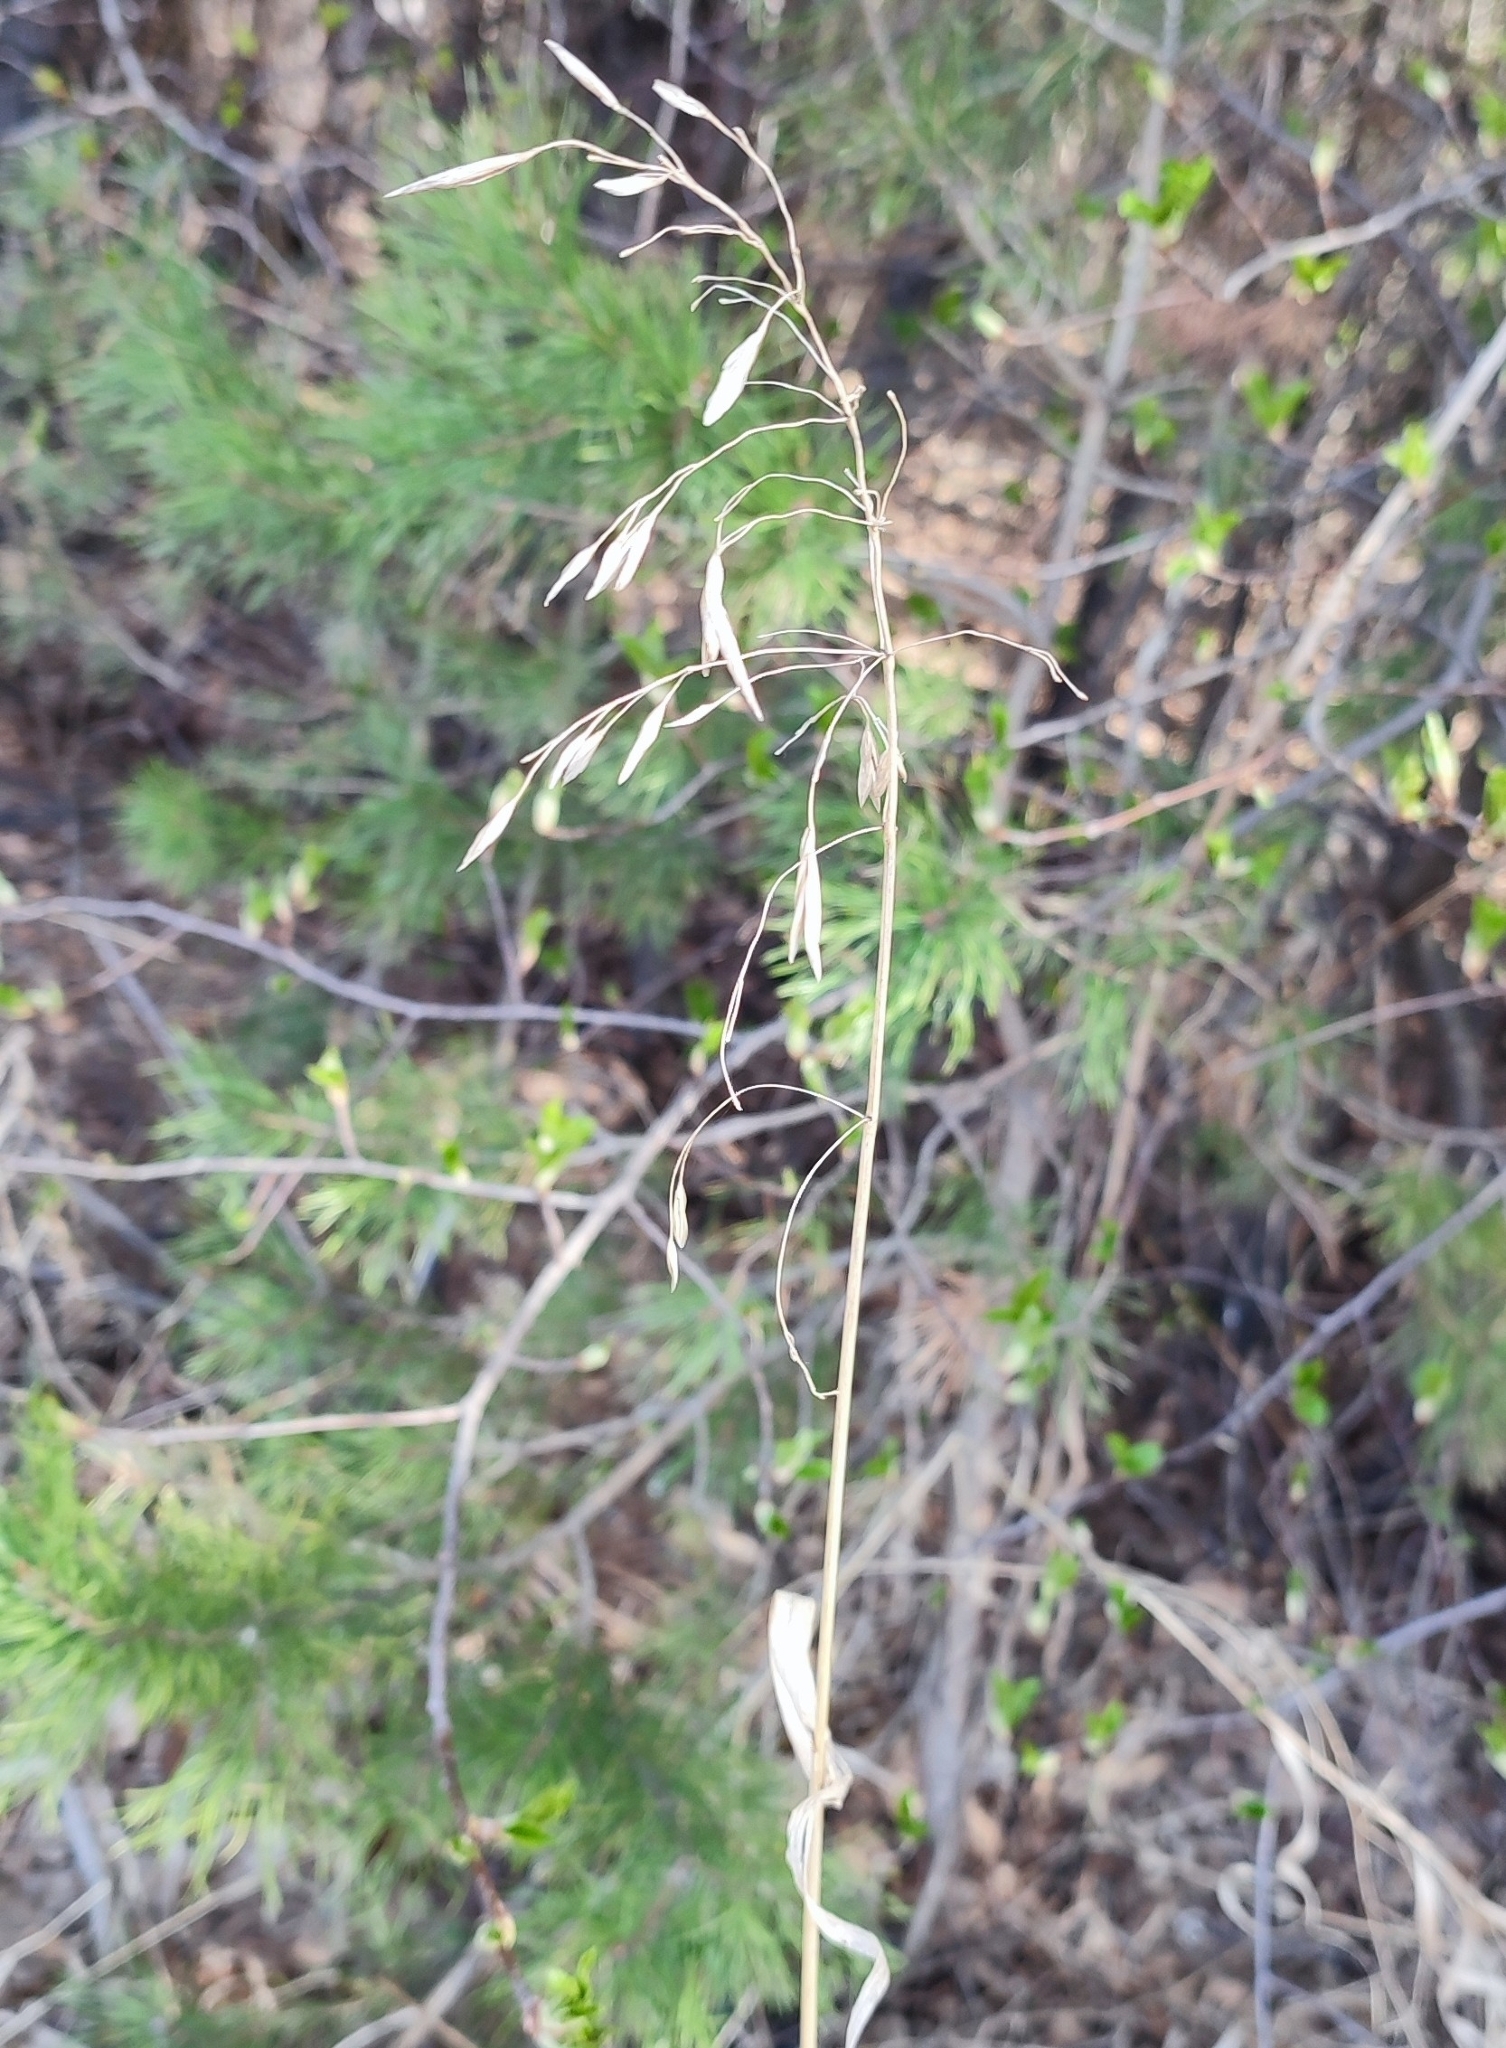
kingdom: Plantae
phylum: Tracheophyta
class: Liliopsida
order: Poales
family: Poaceae
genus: Bromus
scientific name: Bromus inermis
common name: Smooth brome
